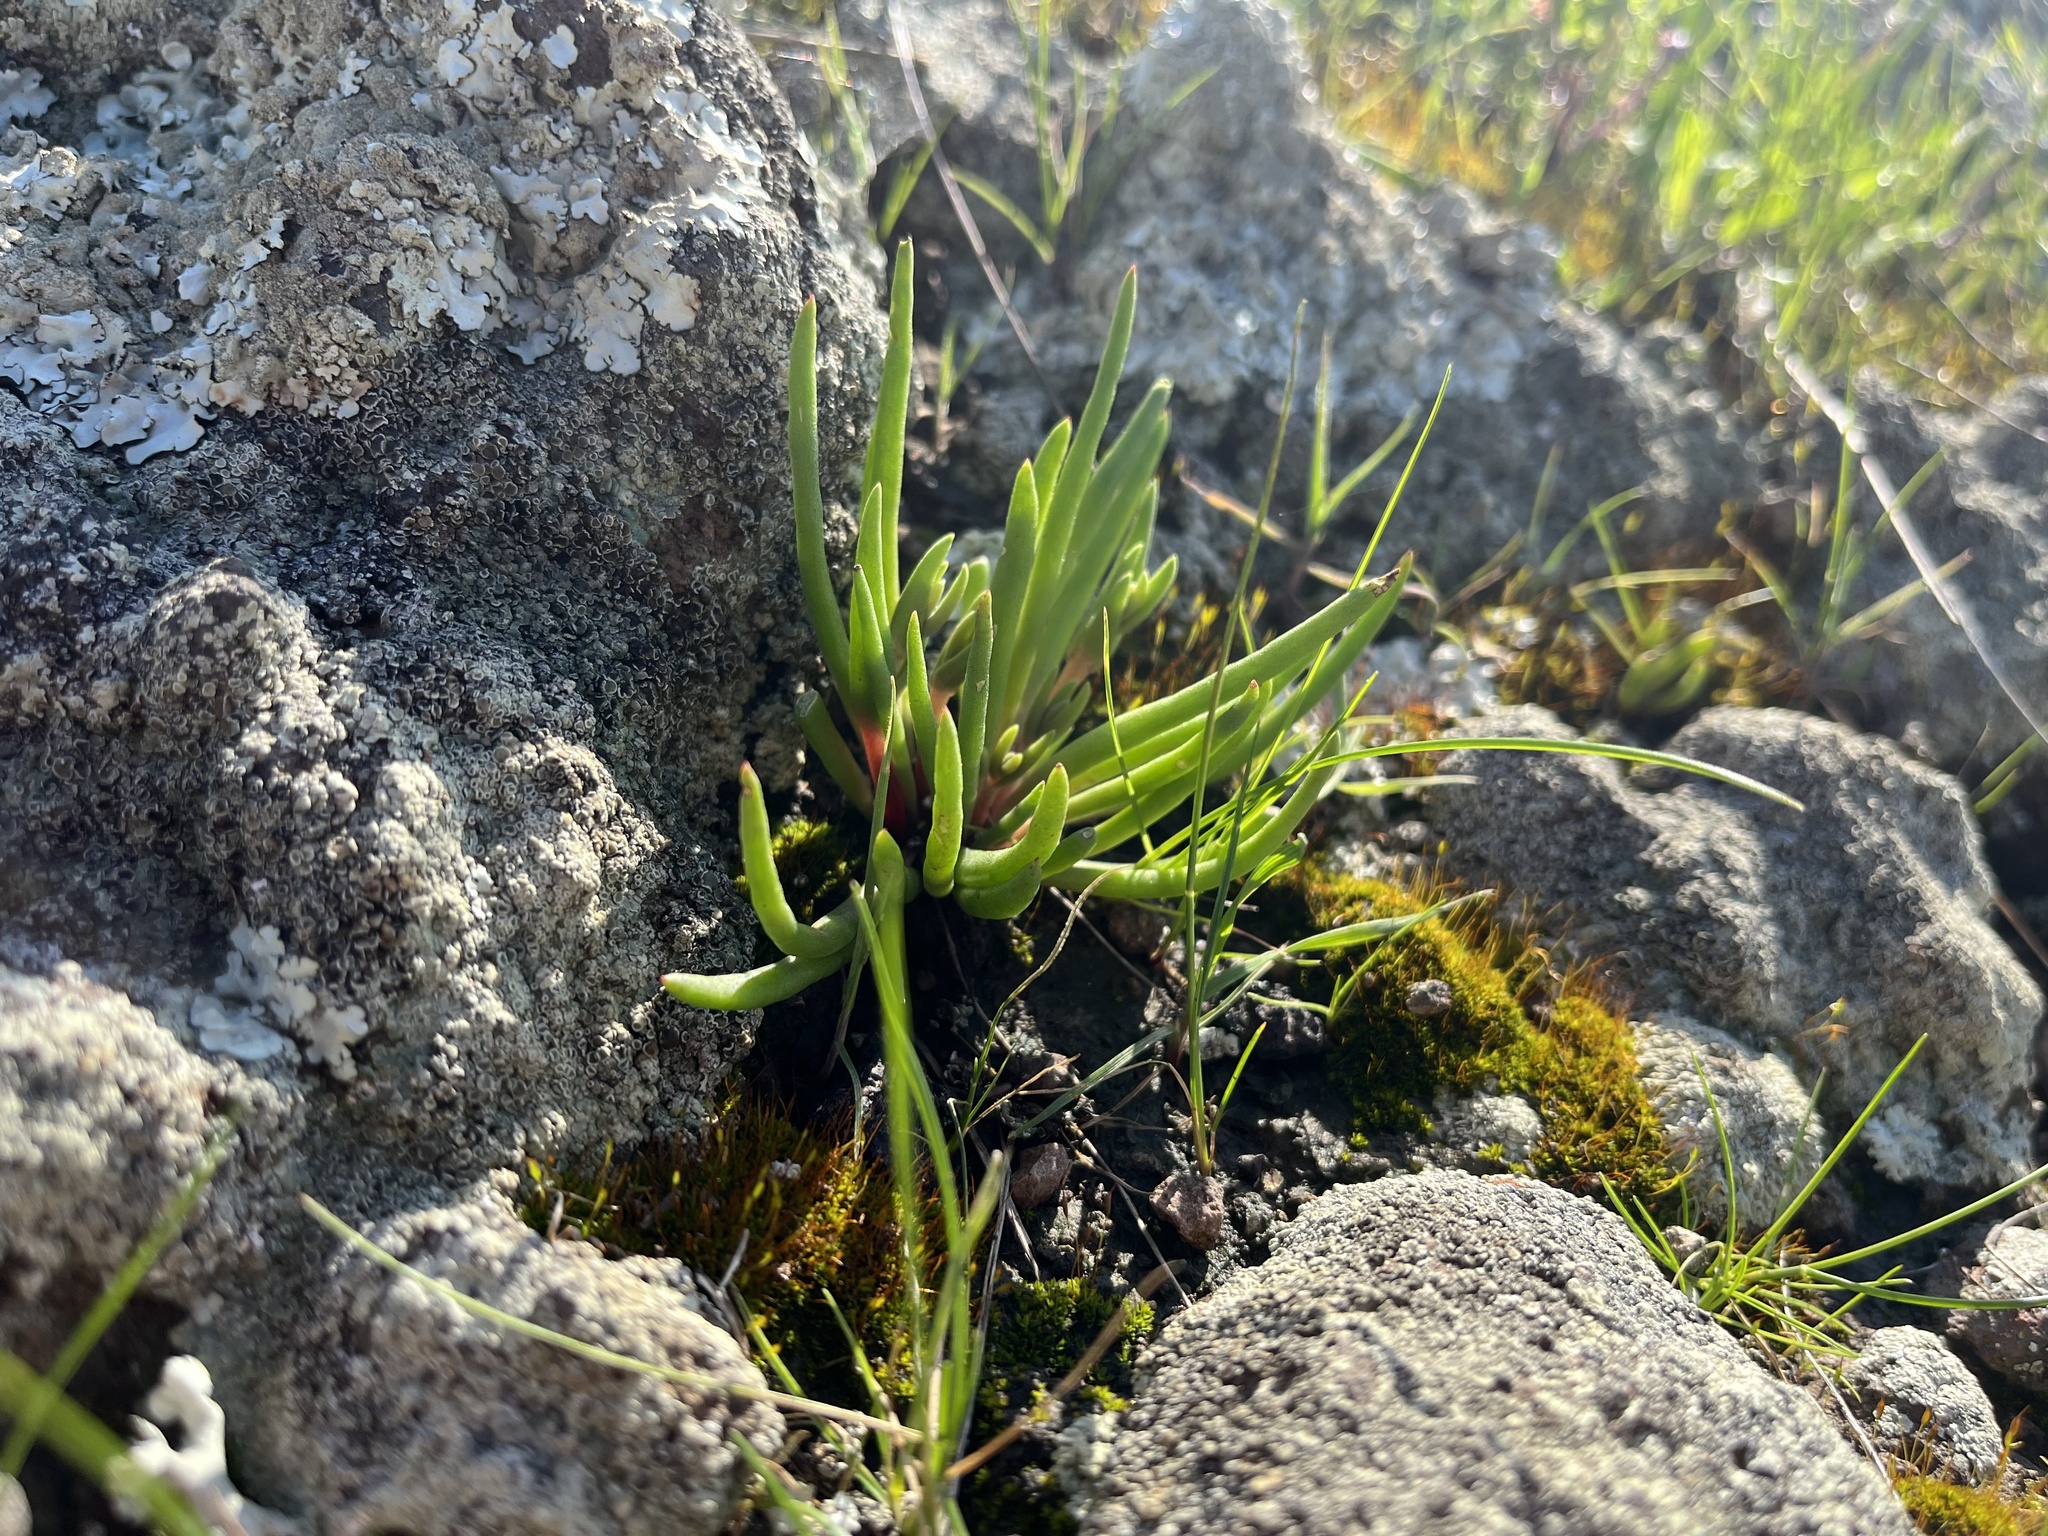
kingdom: Plantae
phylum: Tracheophyta
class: Magnoliopsida
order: Saxifragales
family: Crassulaceae
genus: Dudleya
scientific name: Dudleya multicaulis
